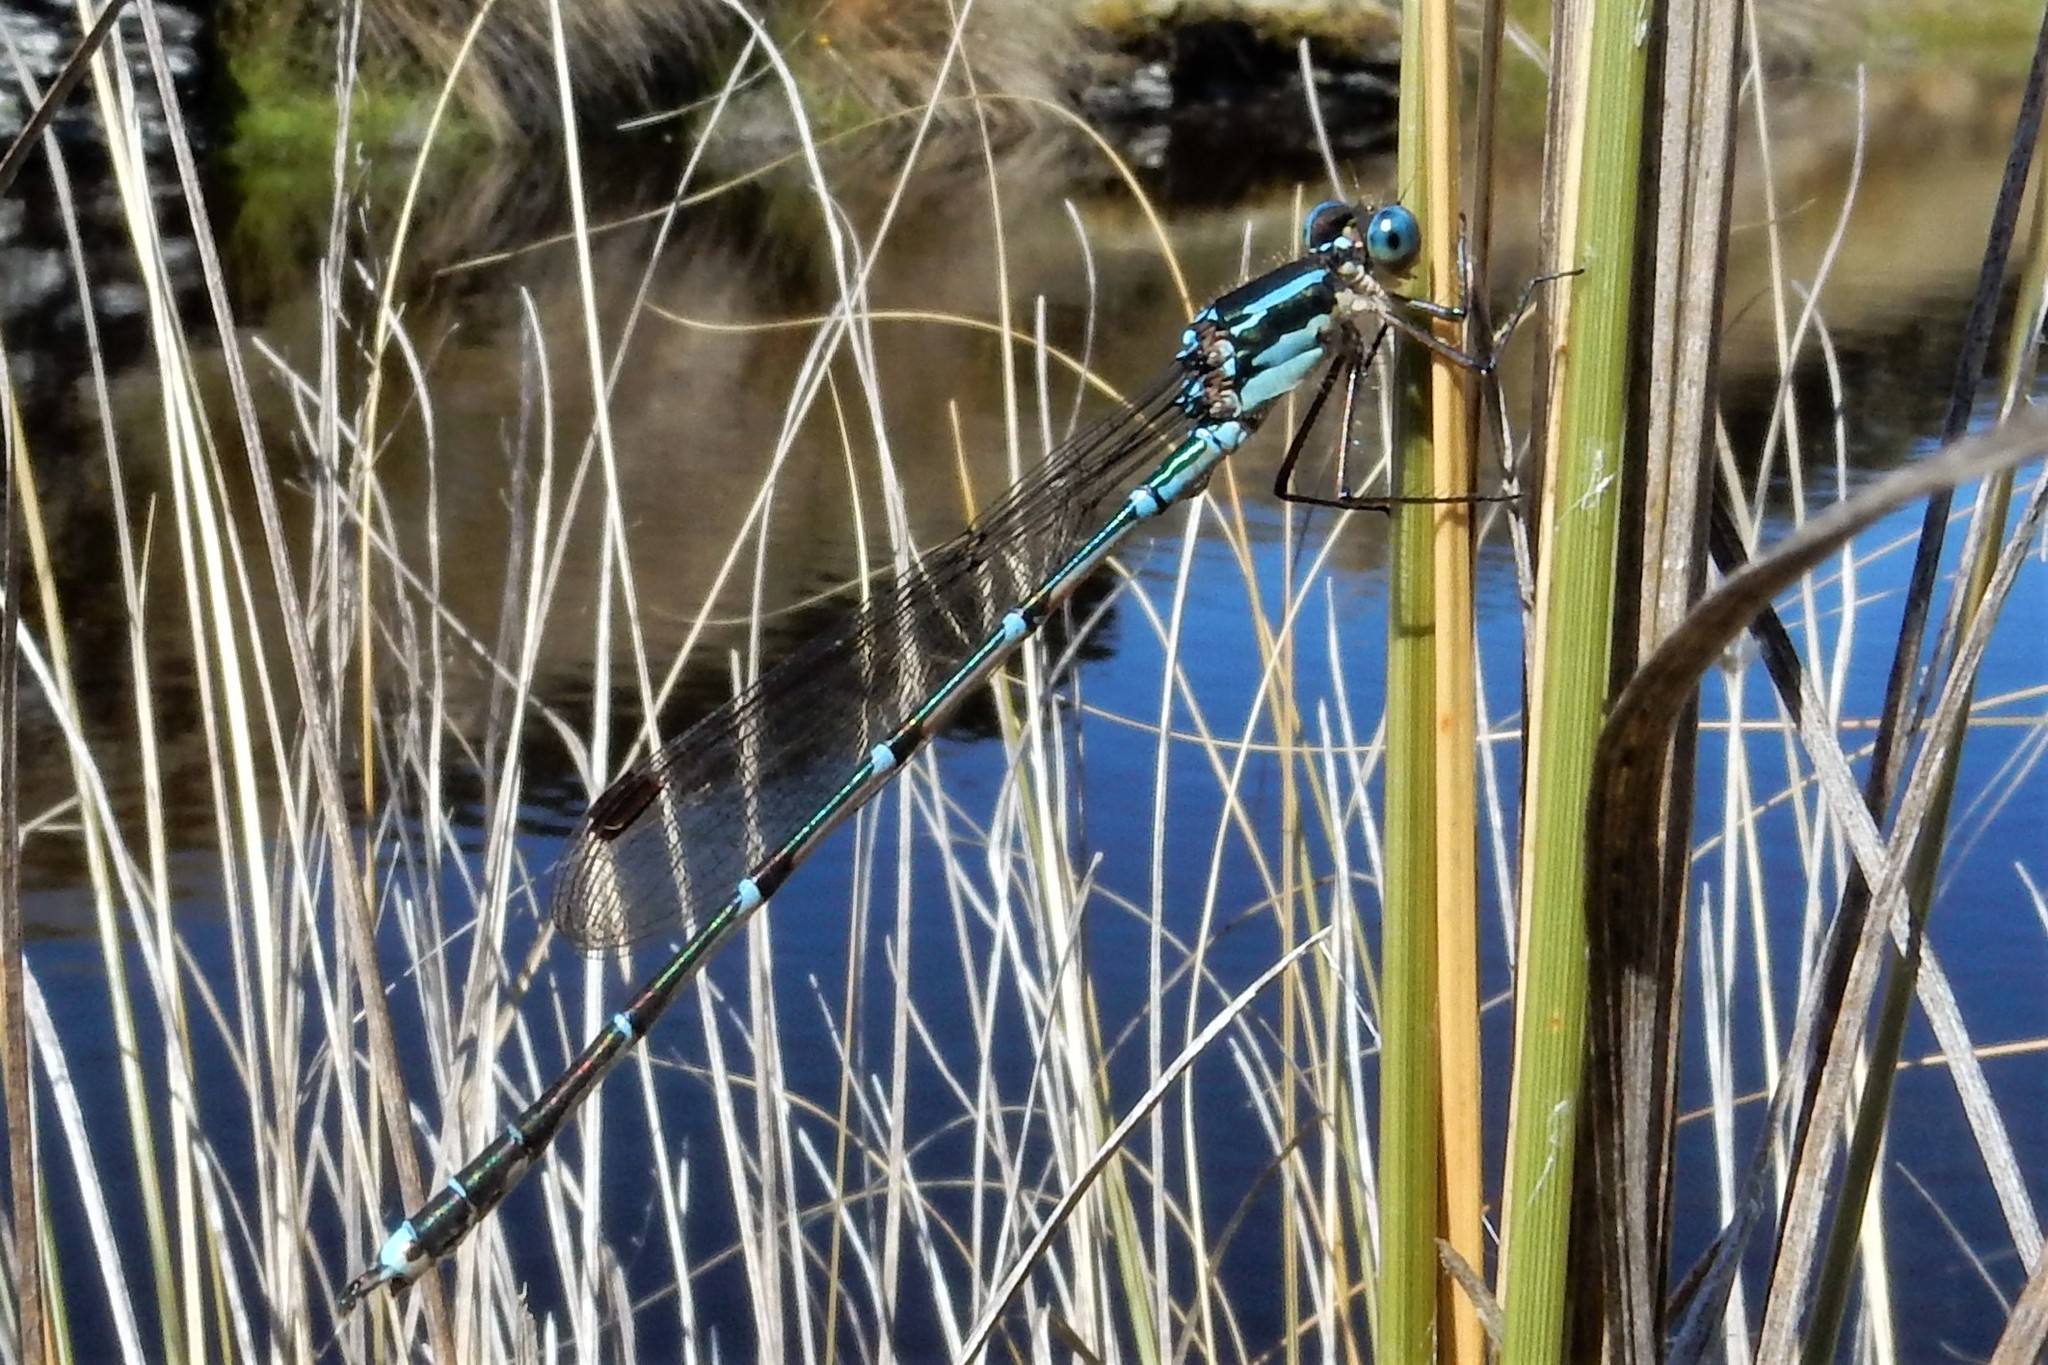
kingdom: Animalia
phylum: Arthropoda
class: Insecta
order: Odonata
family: Lestidae
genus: Austrolestes
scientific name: Austrolestes colensonis
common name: Blue damselfly
